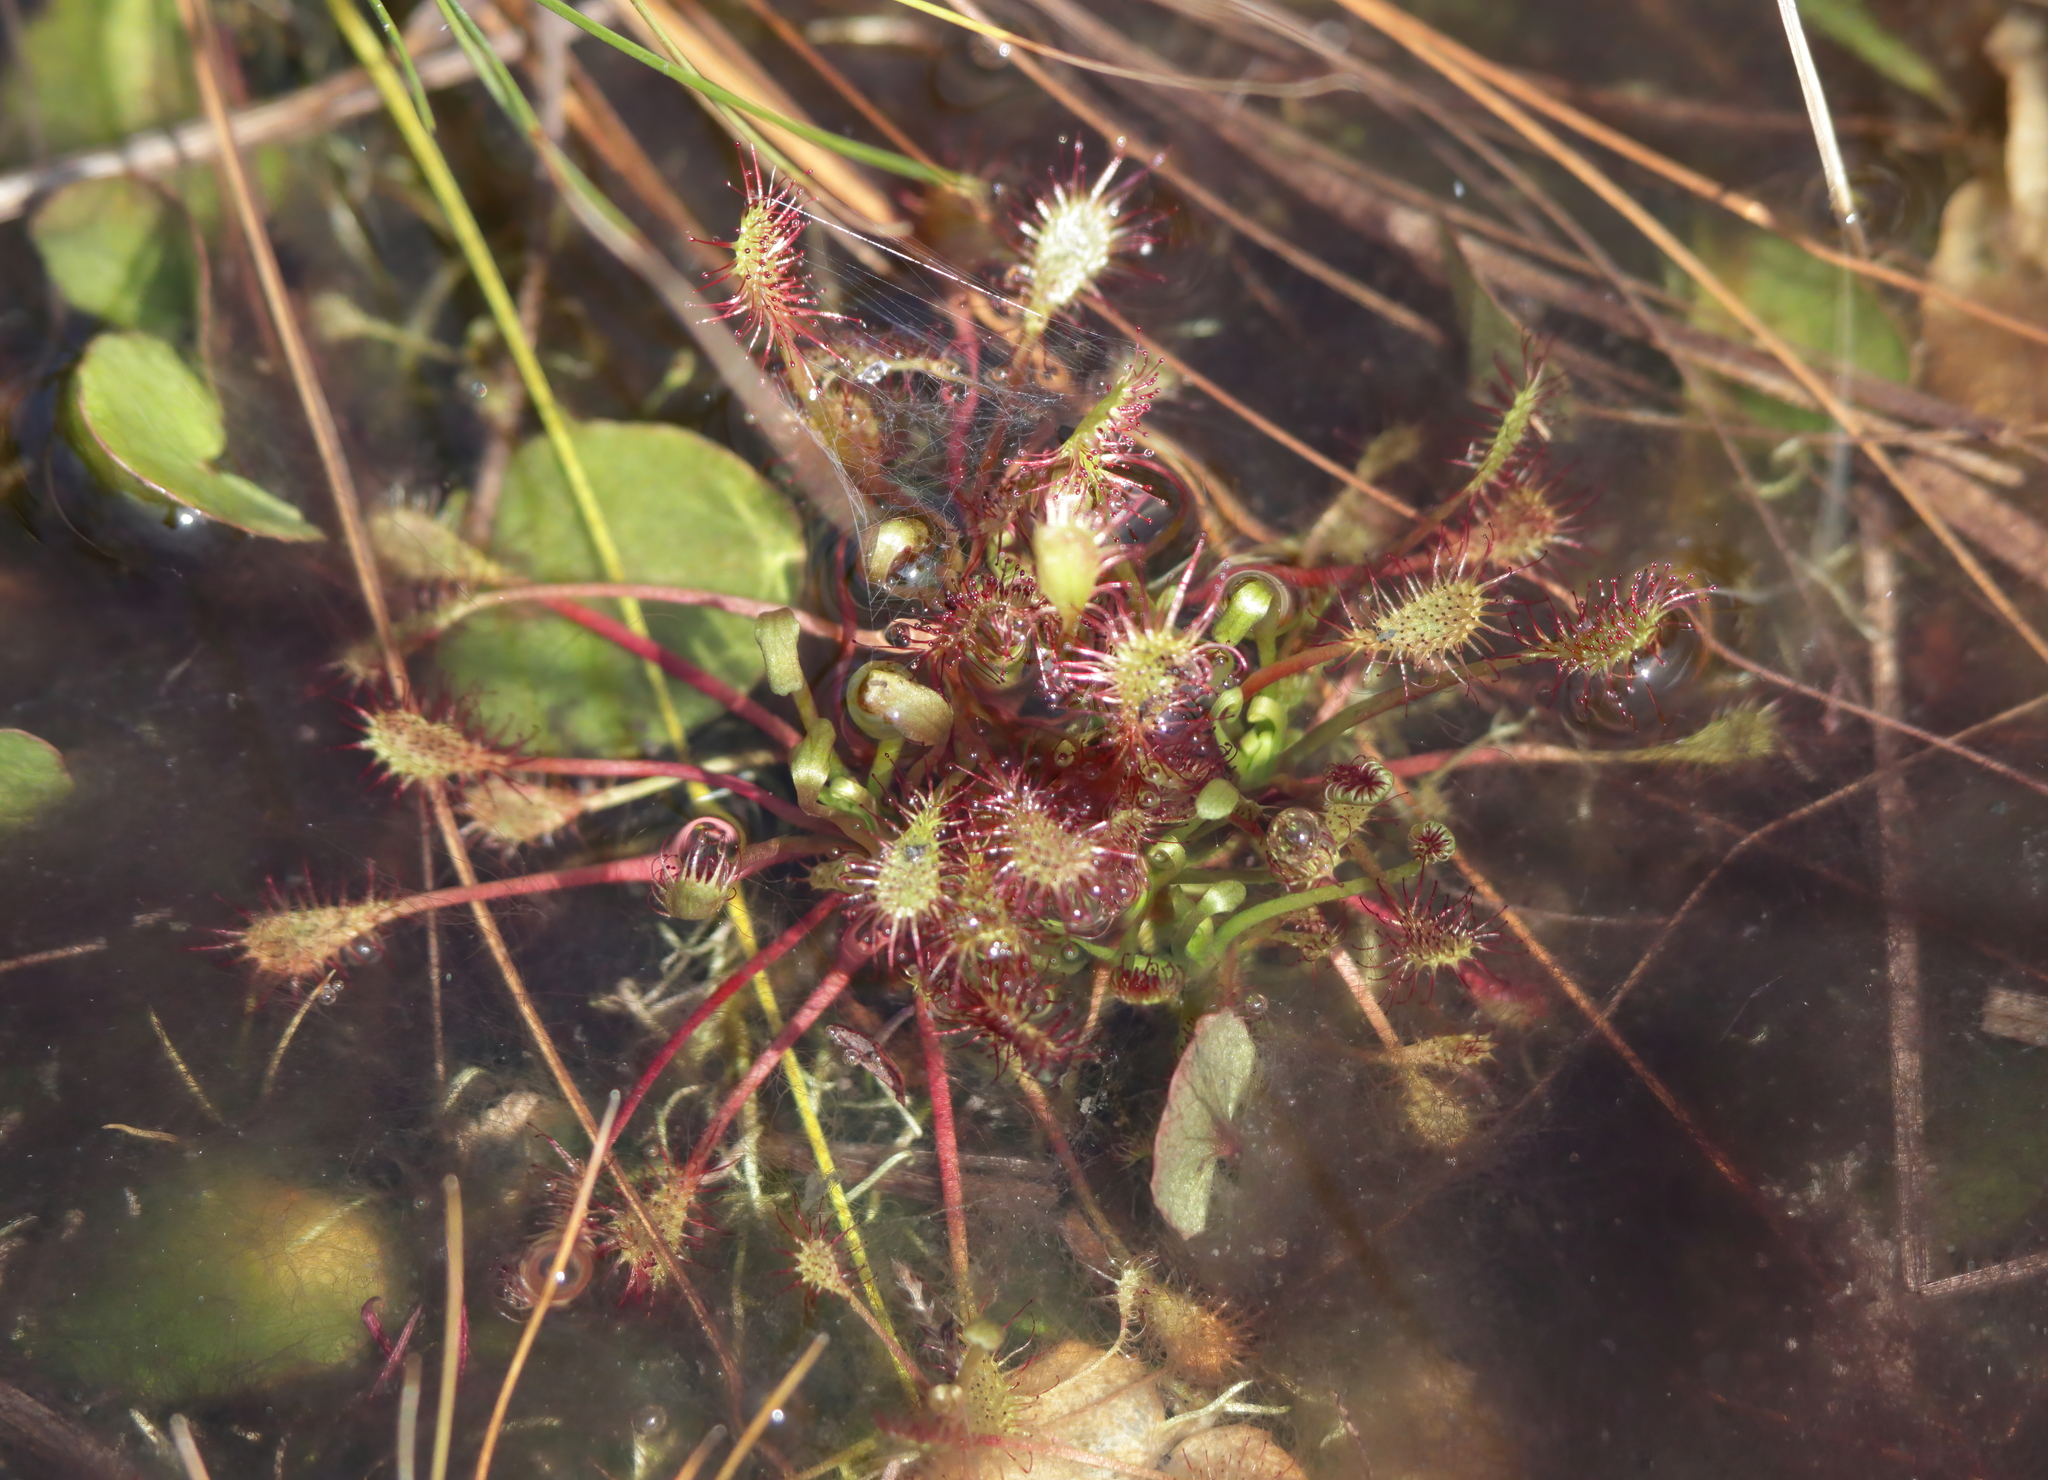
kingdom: Plantae
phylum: Tracheophyta
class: Magnoliopsida
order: Caryophyllales
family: Droseraceae
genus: Drosera
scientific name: Drosera intermedia
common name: Oblong-leaved sundew
